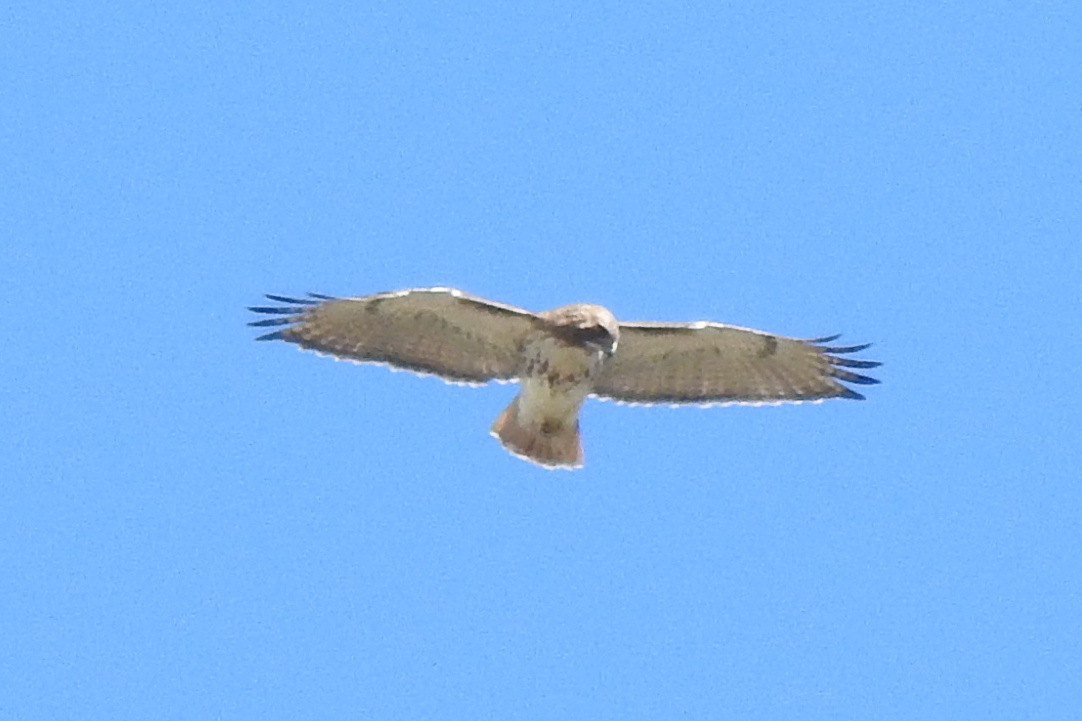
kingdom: Animalia
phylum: Chordata
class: Aves
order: Accipitriformes
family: Accipitridae
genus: Buteo
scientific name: Buteo jamaicensis
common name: Red-tailed hawk
